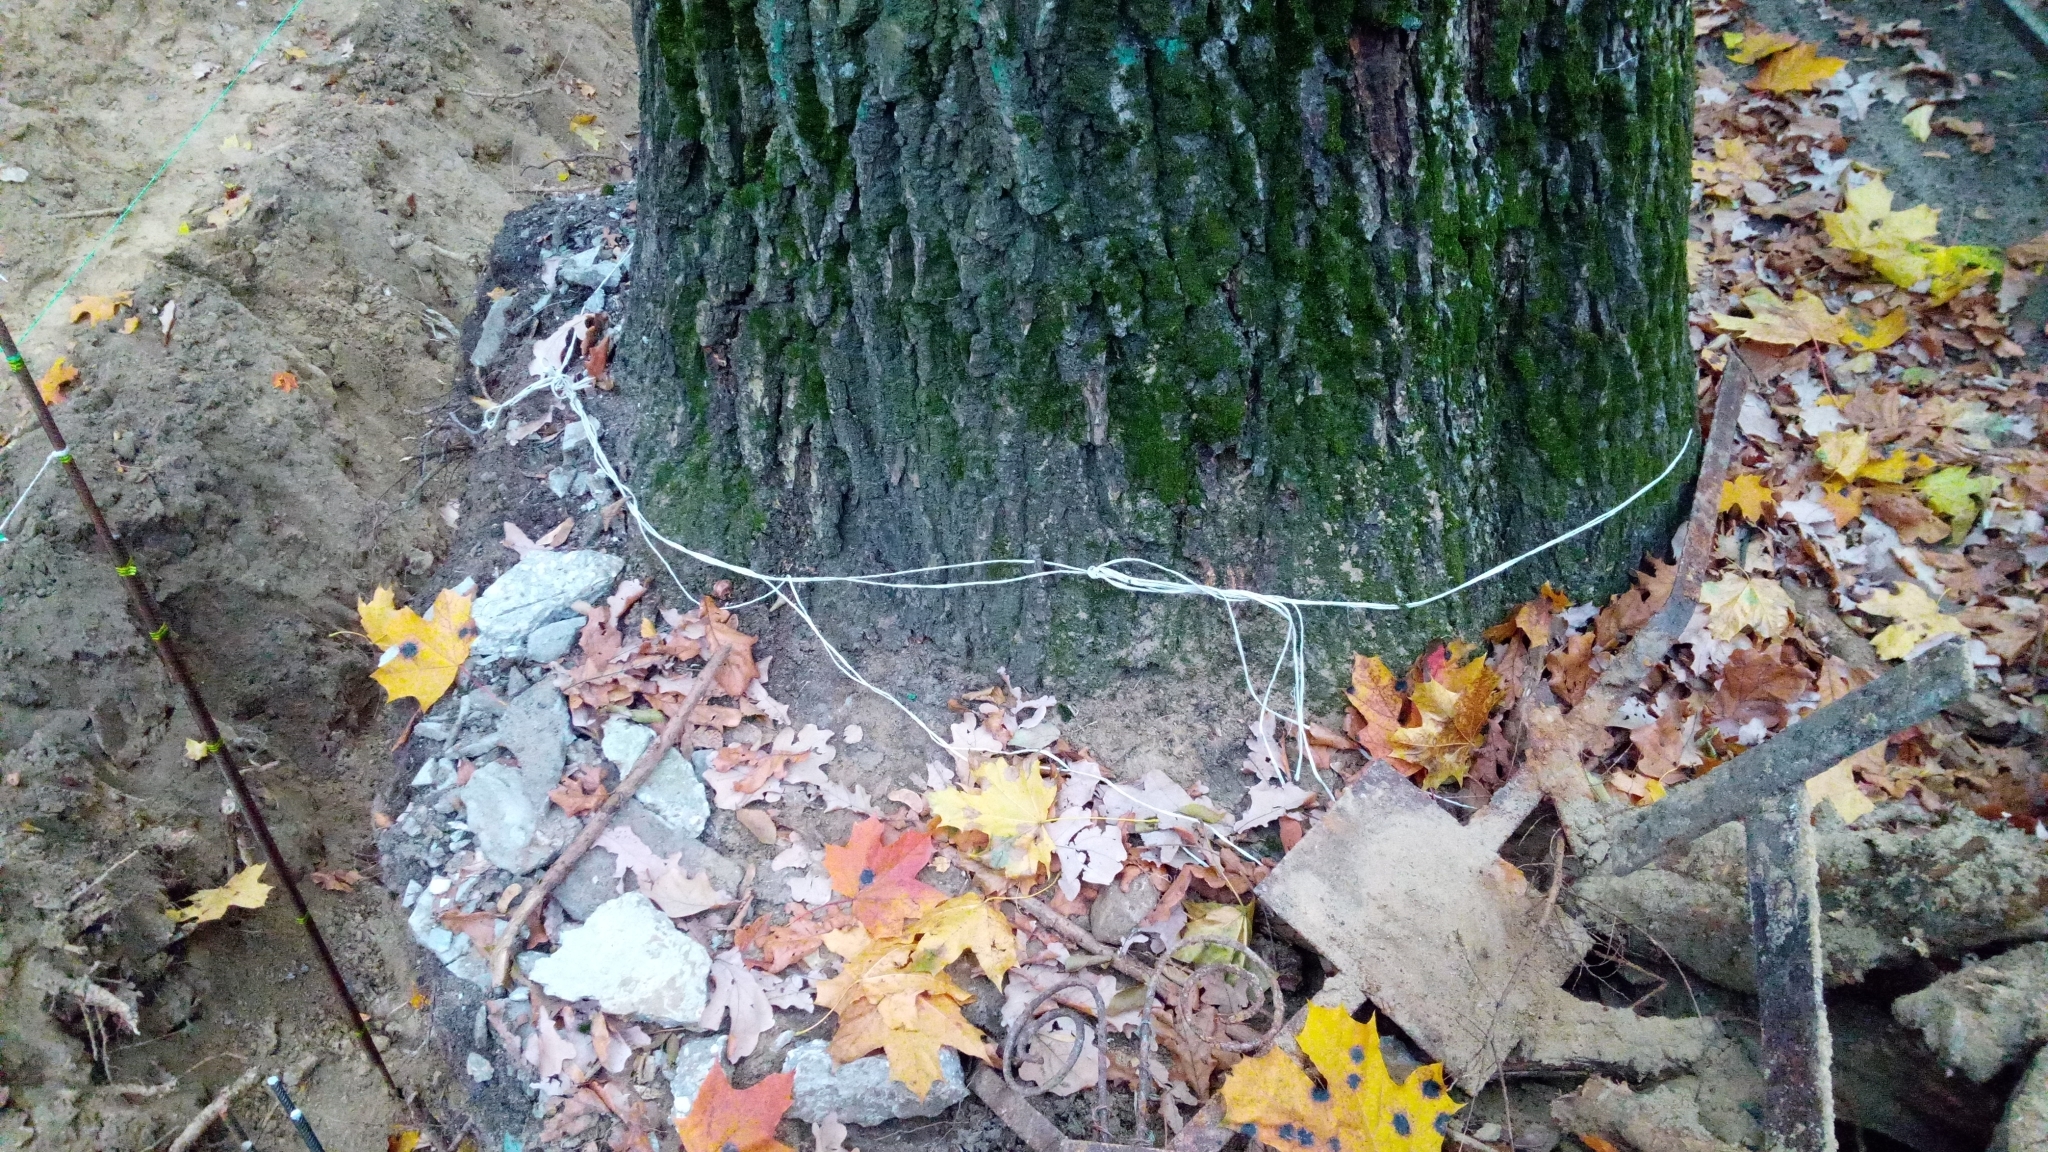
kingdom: Plantae
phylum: Tracheophyta
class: Magnoliopsida
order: Fagales
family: Fagaceae
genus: Quercus
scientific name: Quercus robur
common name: Pedunculate oak
